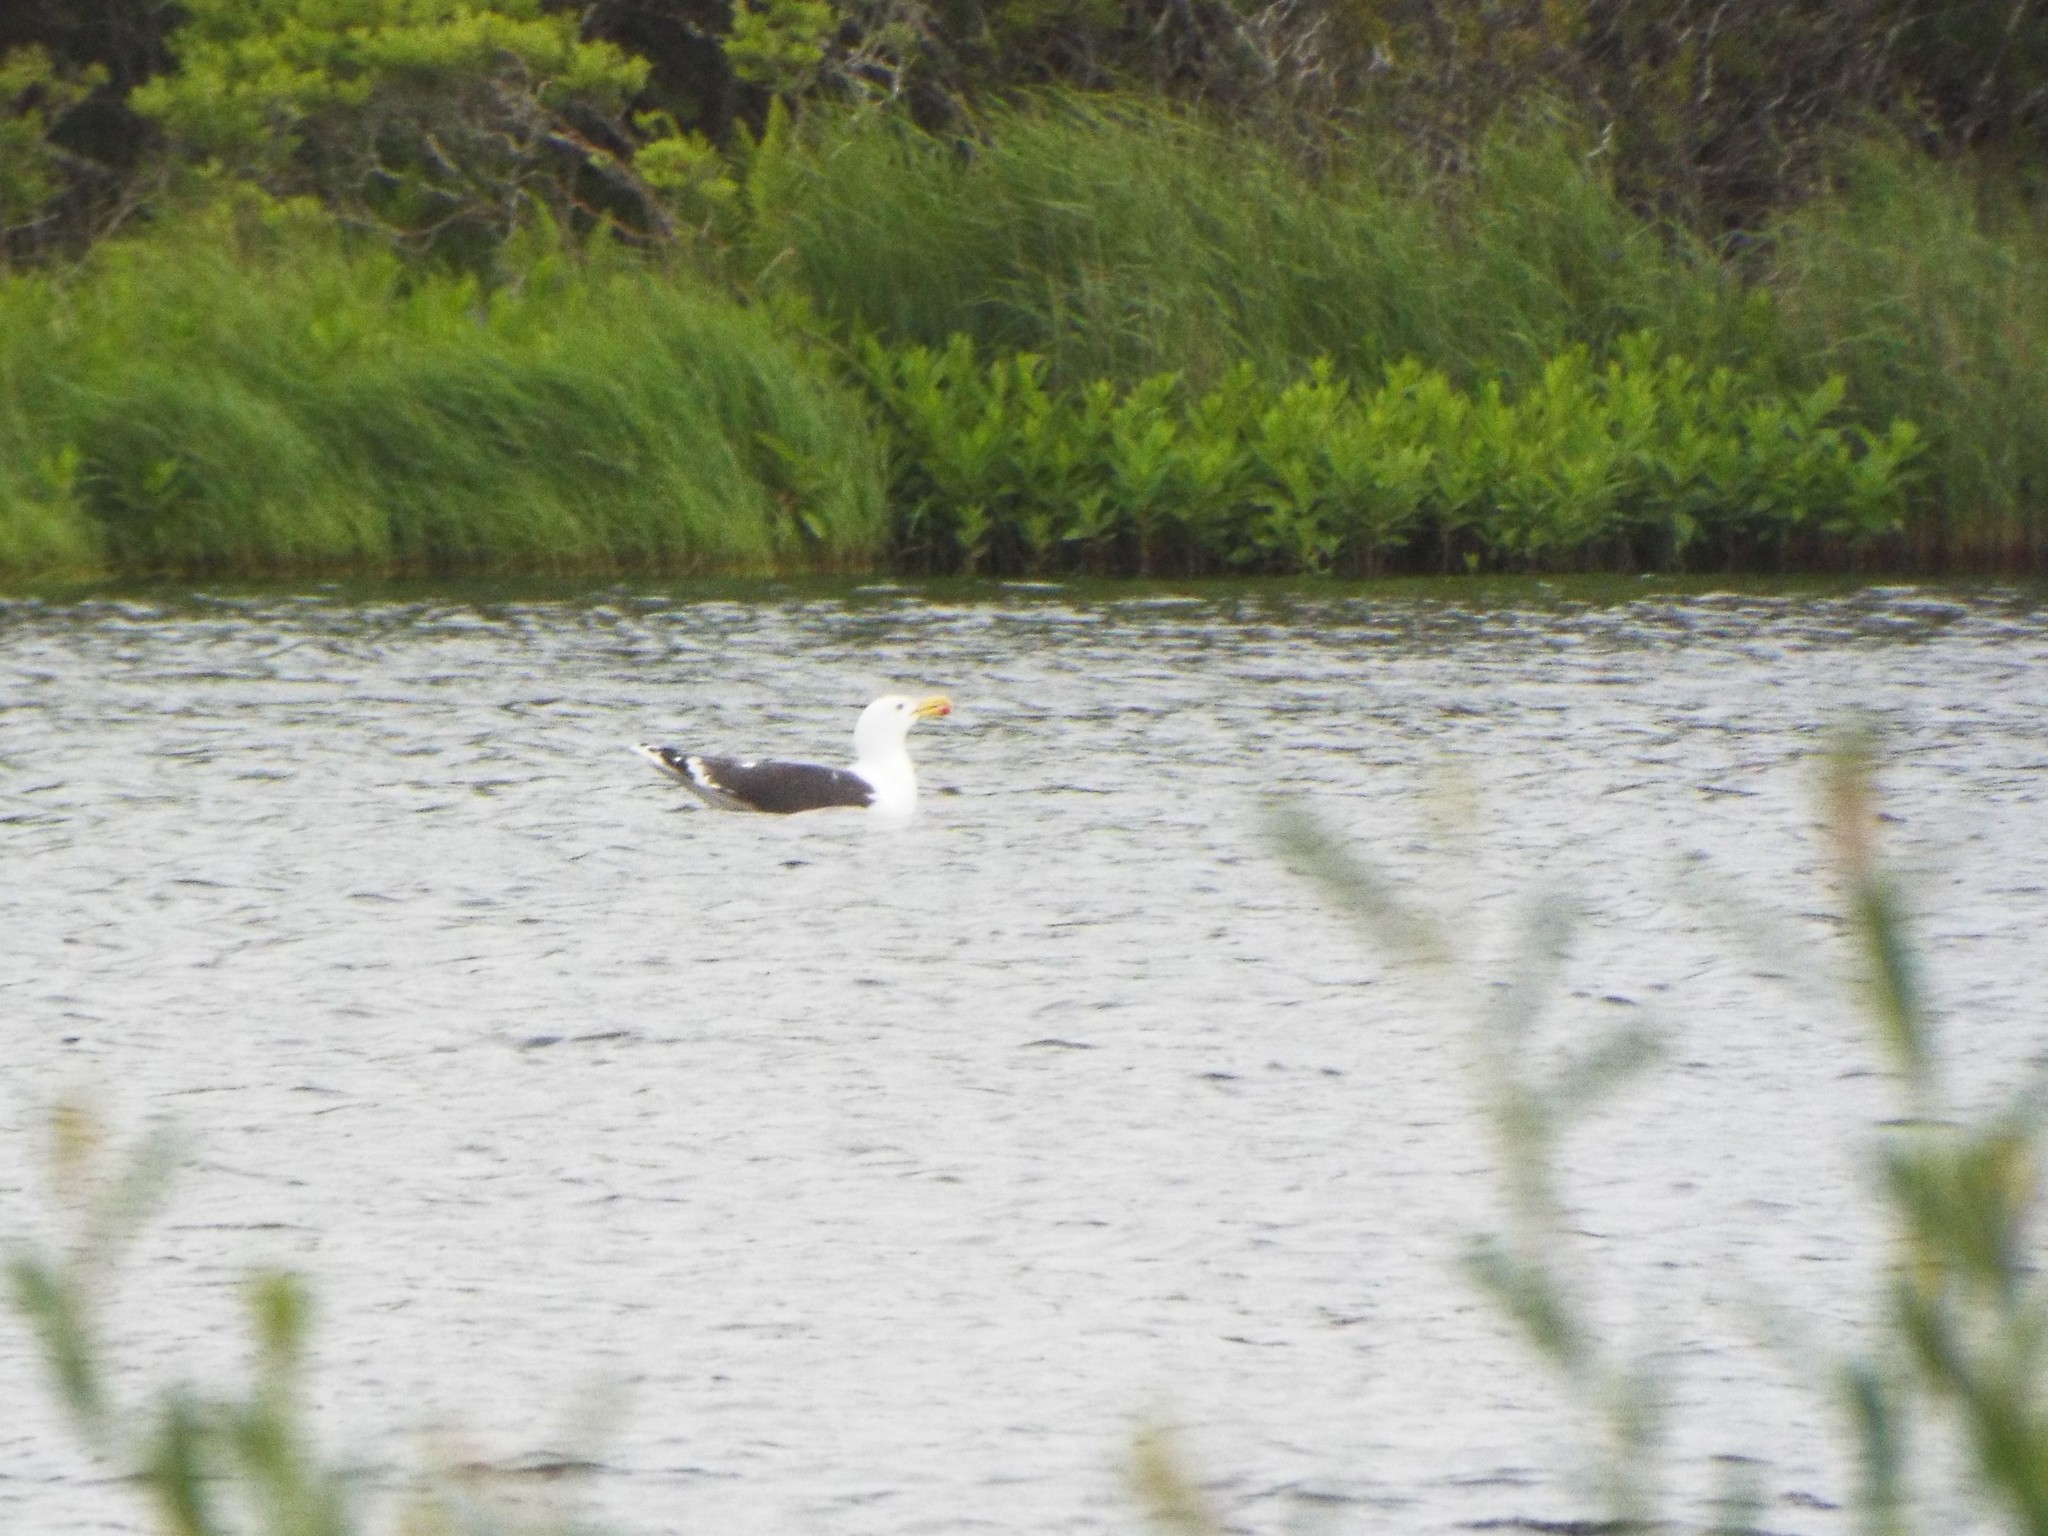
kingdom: Animalia
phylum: Chordata
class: Aves
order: Charadriiformes
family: Laridae
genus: Larus
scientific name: Larus marinus
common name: Great black-backed gull
